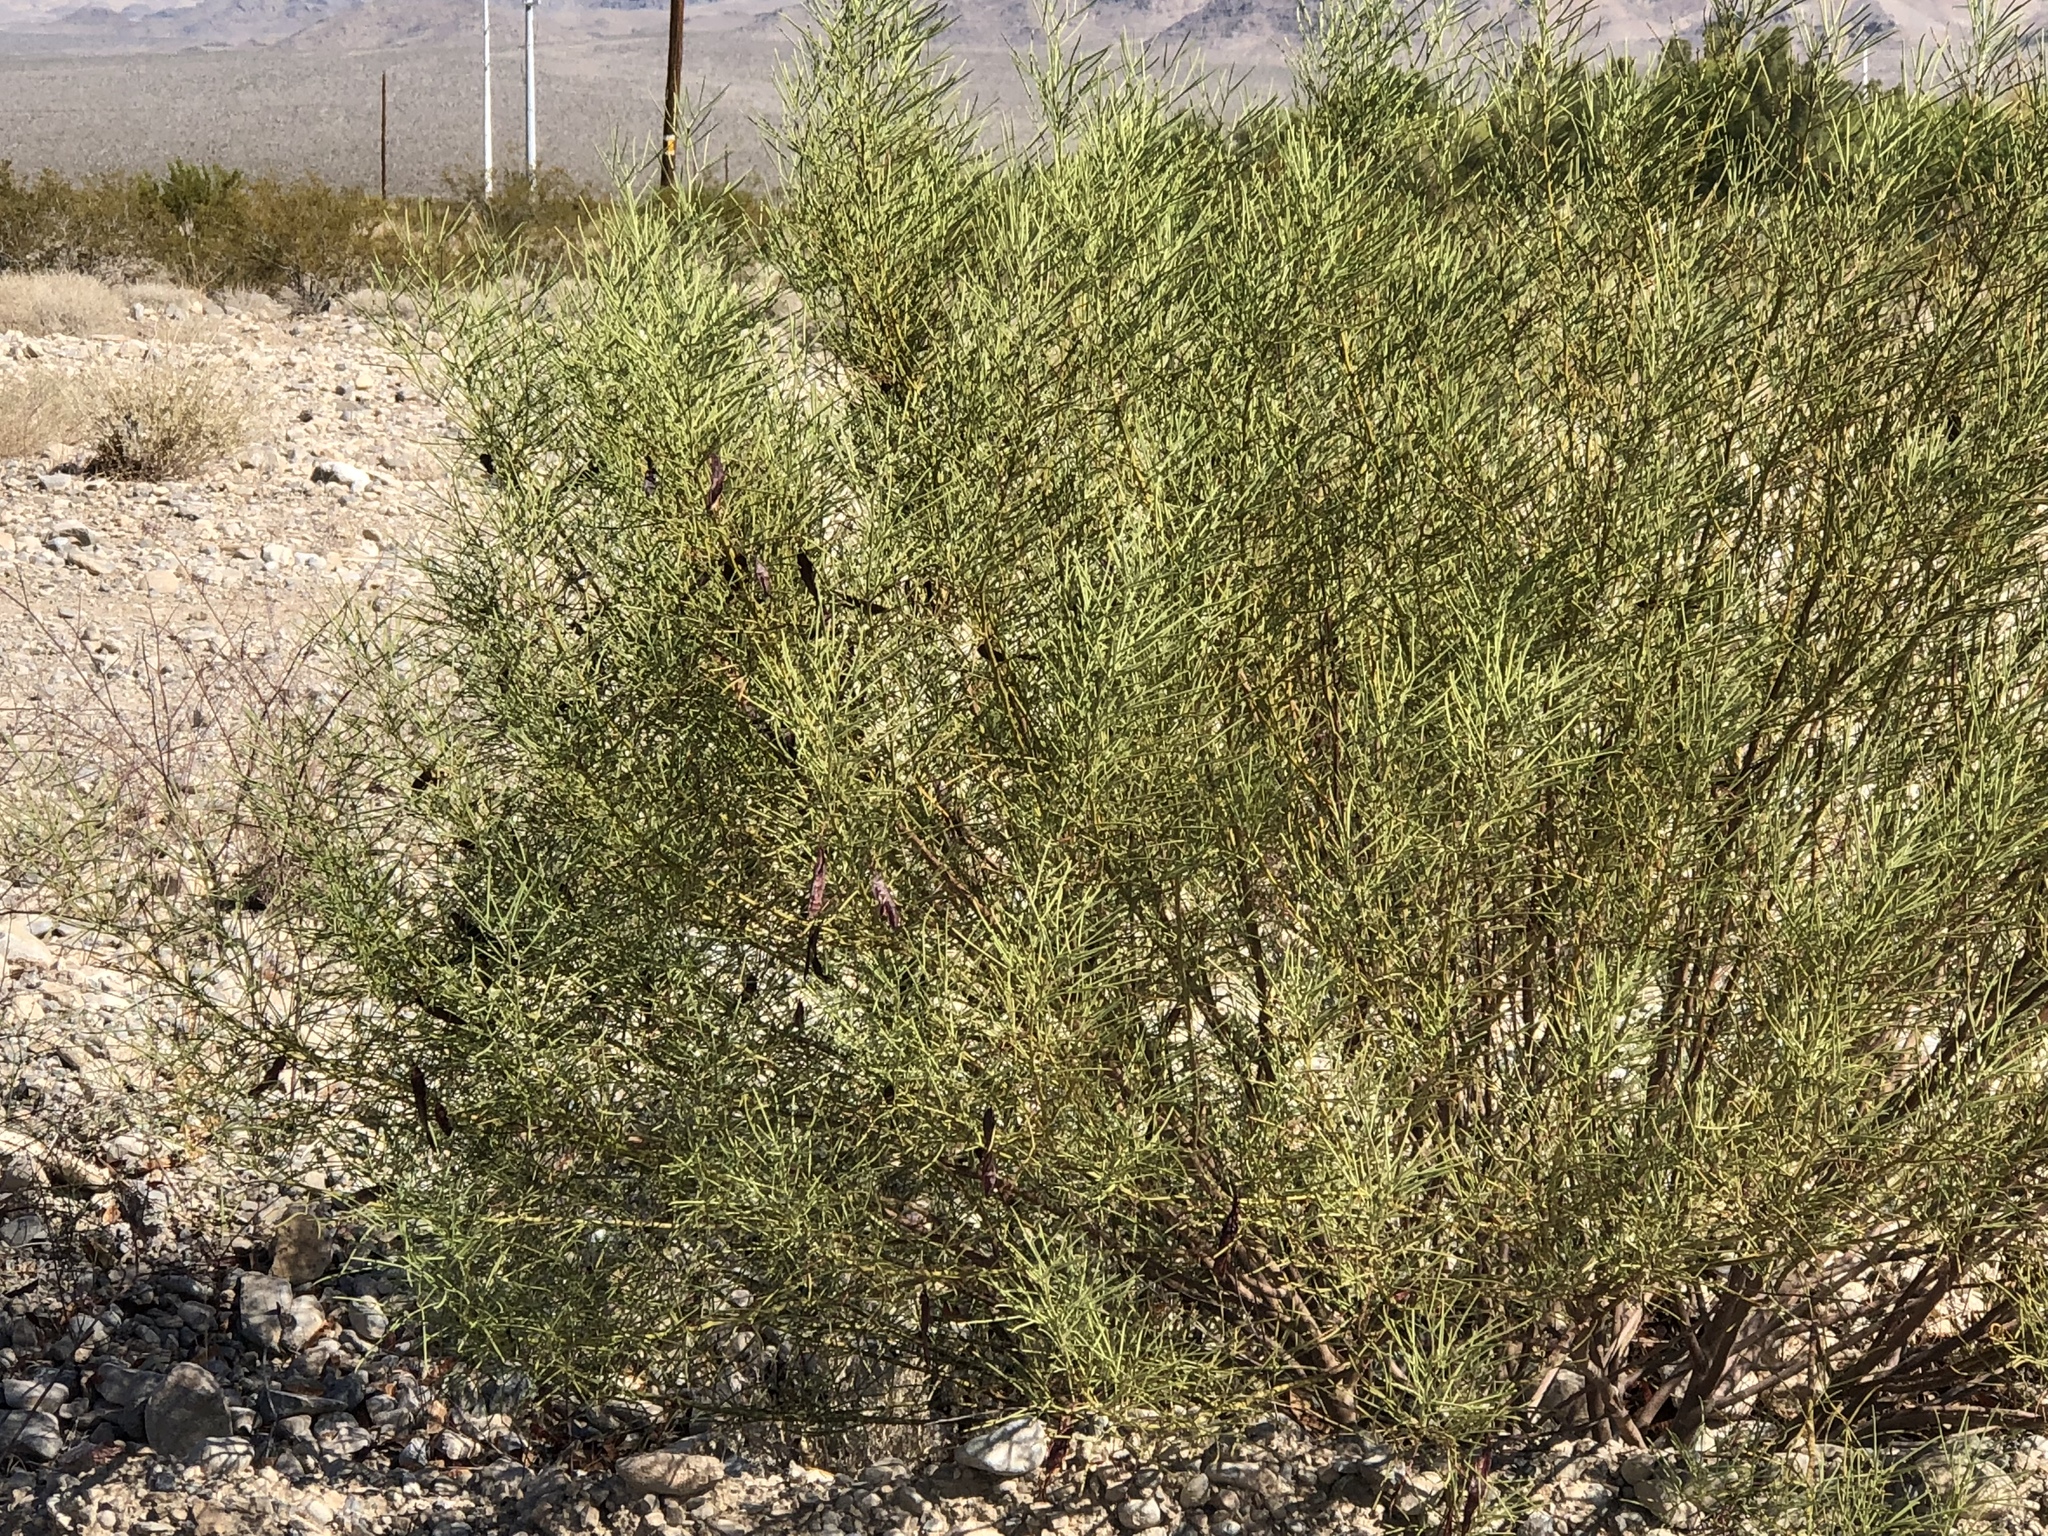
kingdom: Plantae
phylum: Tracheophyta
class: Magnoliopsida
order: Asterales
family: Asteraceae
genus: Baccharis
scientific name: Baccharis sarothroides
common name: Desert-broom
